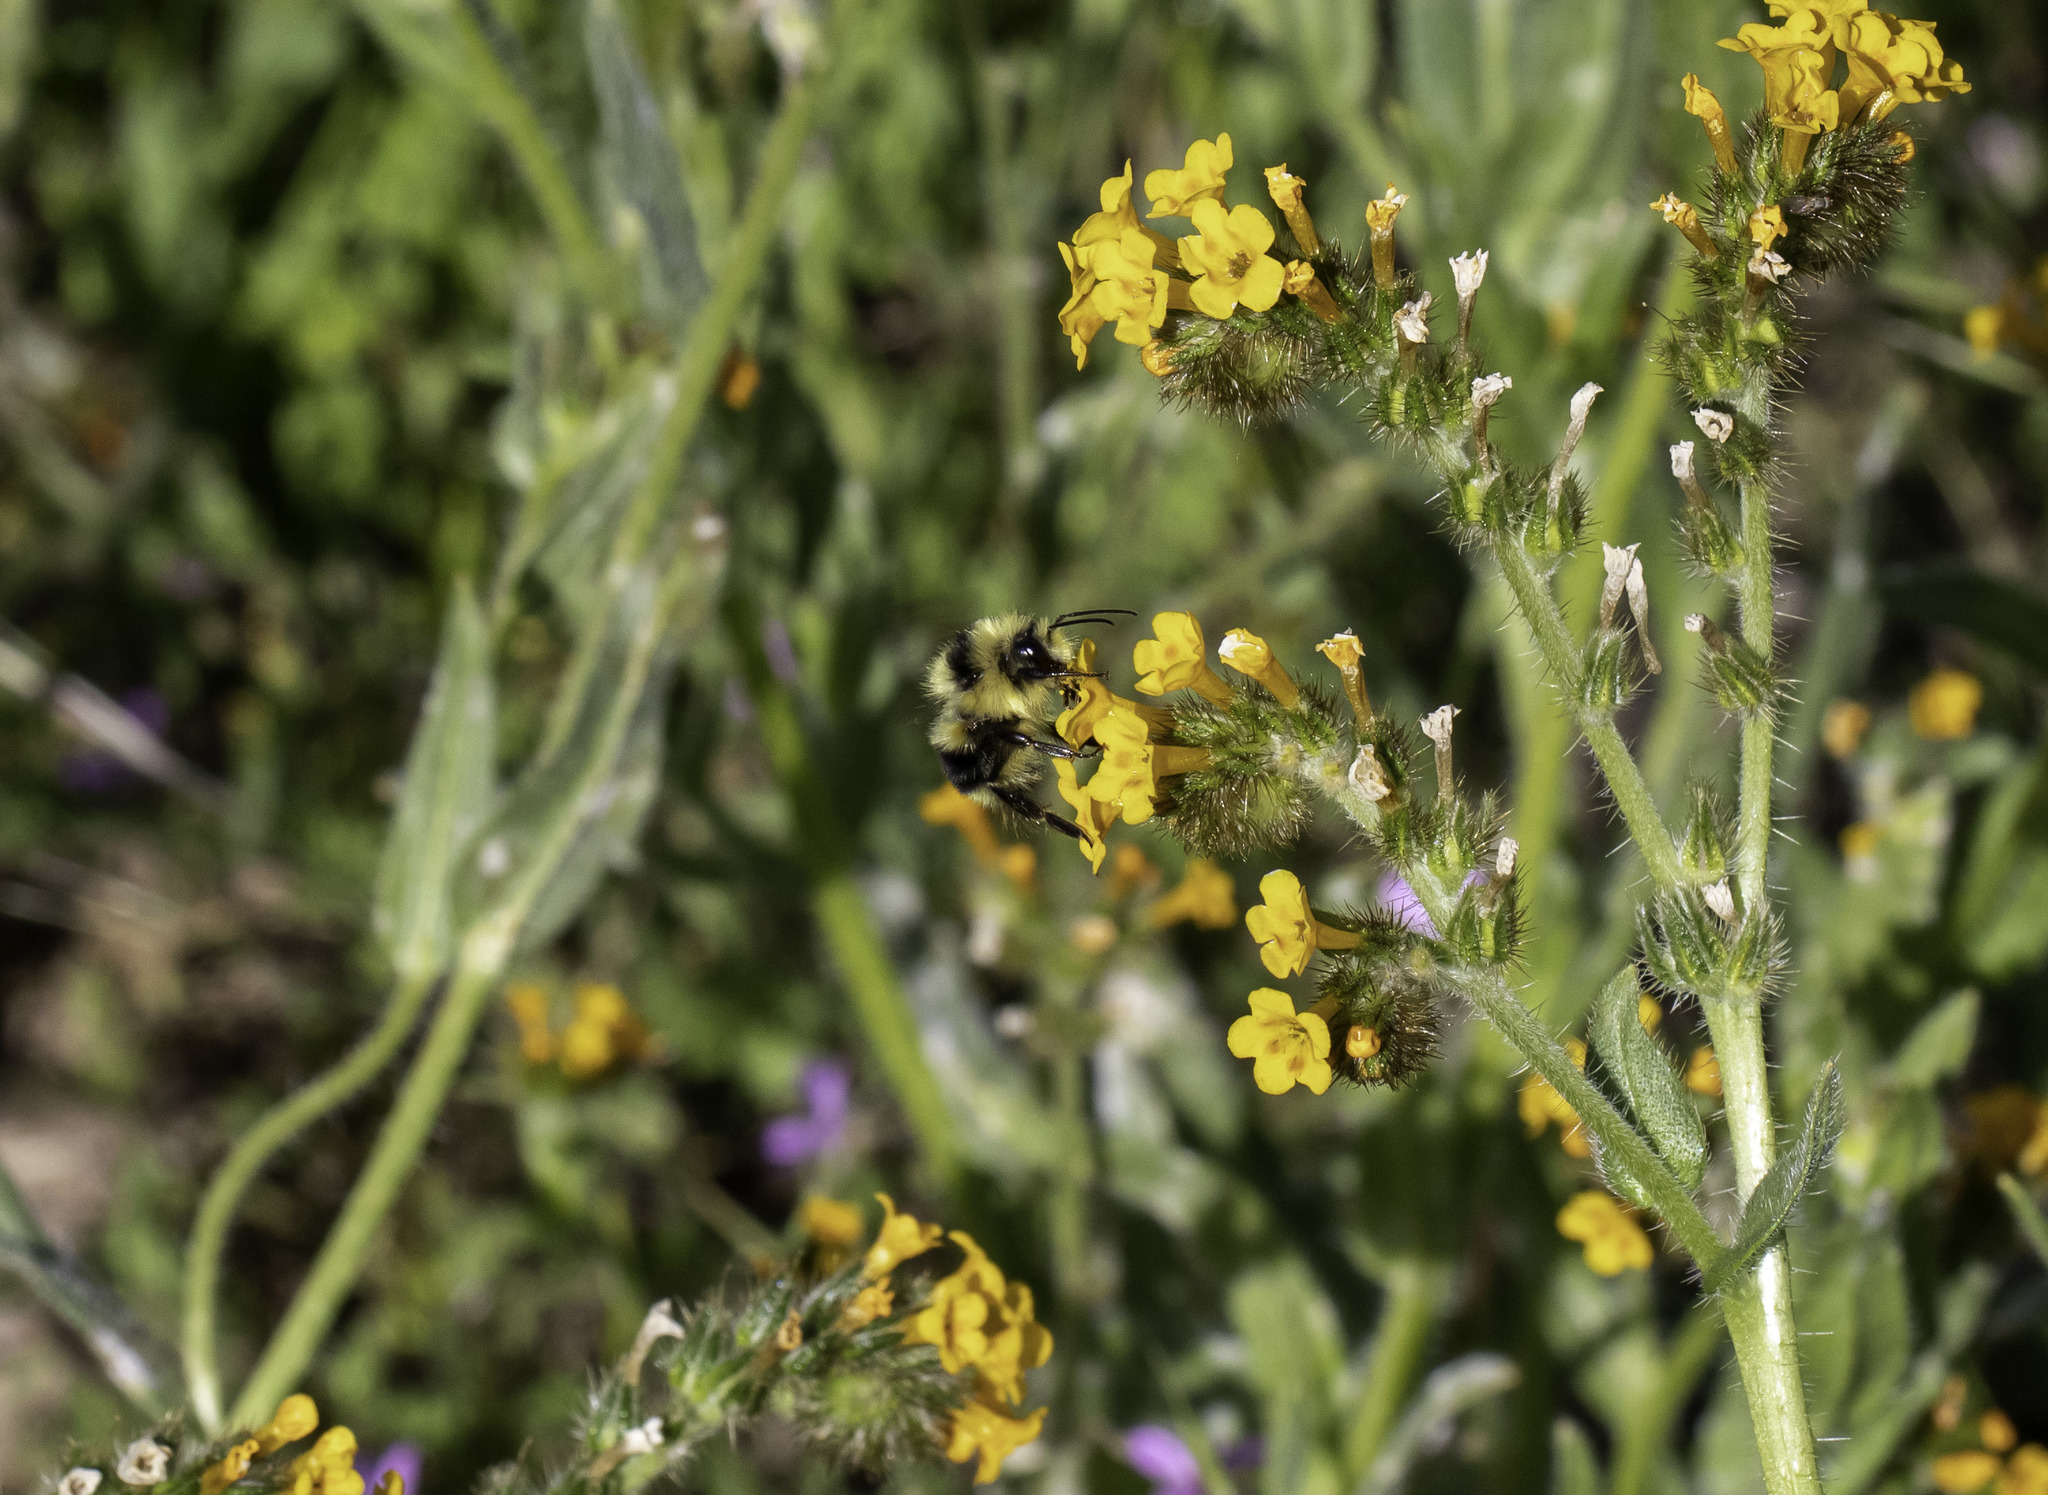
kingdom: Animalia
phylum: Arthropoda
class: Insecta
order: Hymenoptera
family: Apidae
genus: Bombus
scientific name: Bombus melanopygus
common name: Black tail bumble bee
